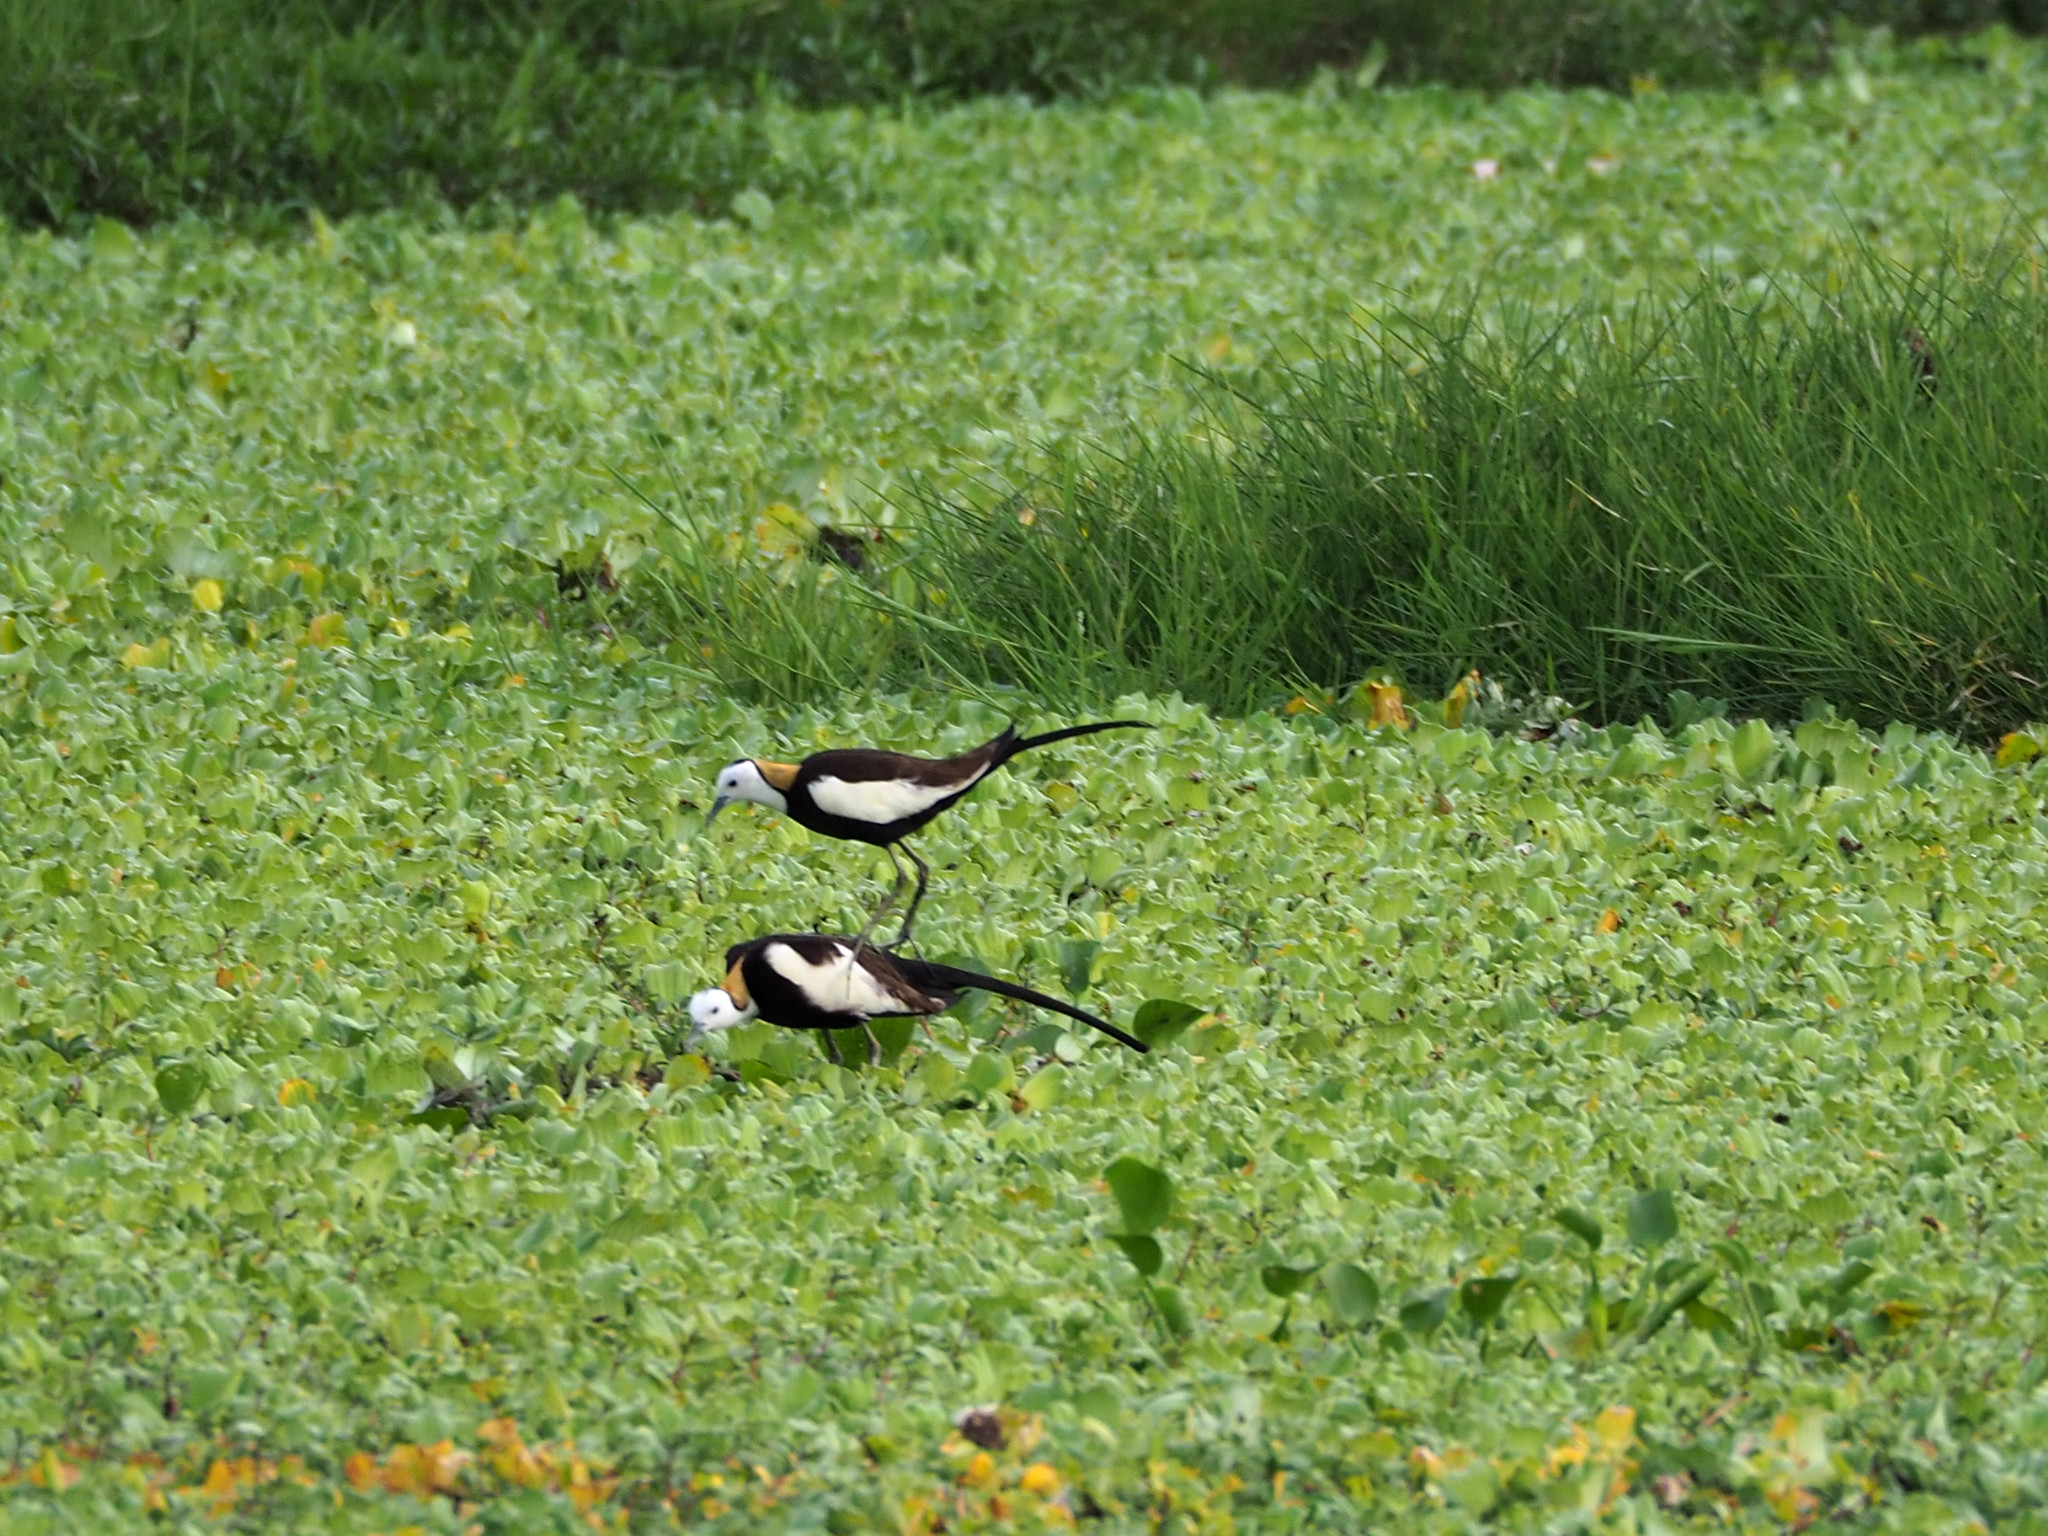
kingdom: Animalia
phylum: Chordata
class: Aves
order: Charadriiformes
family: Jacanidae
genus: Hydrophasianus
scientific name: Hydrophasianus chirurgus
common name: Pheasant-tailed jacana
